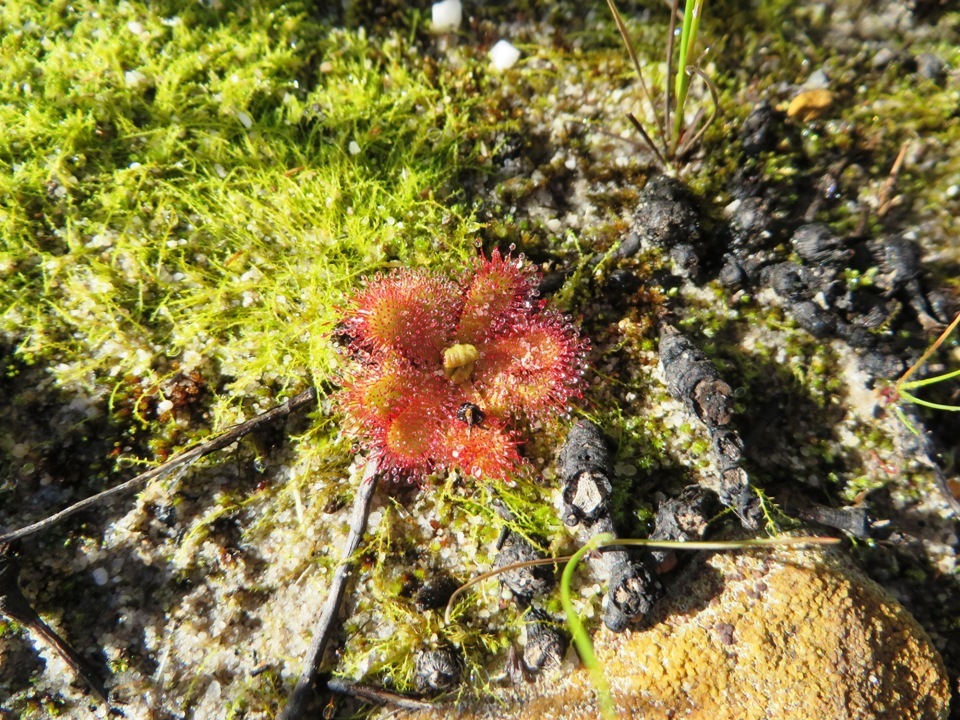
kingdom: Plantae
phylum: Tracheophyta
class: Magnoliopsida
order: Caryophyllales
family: Droseraceae
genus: Drosera
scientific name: Drosera trinervia
